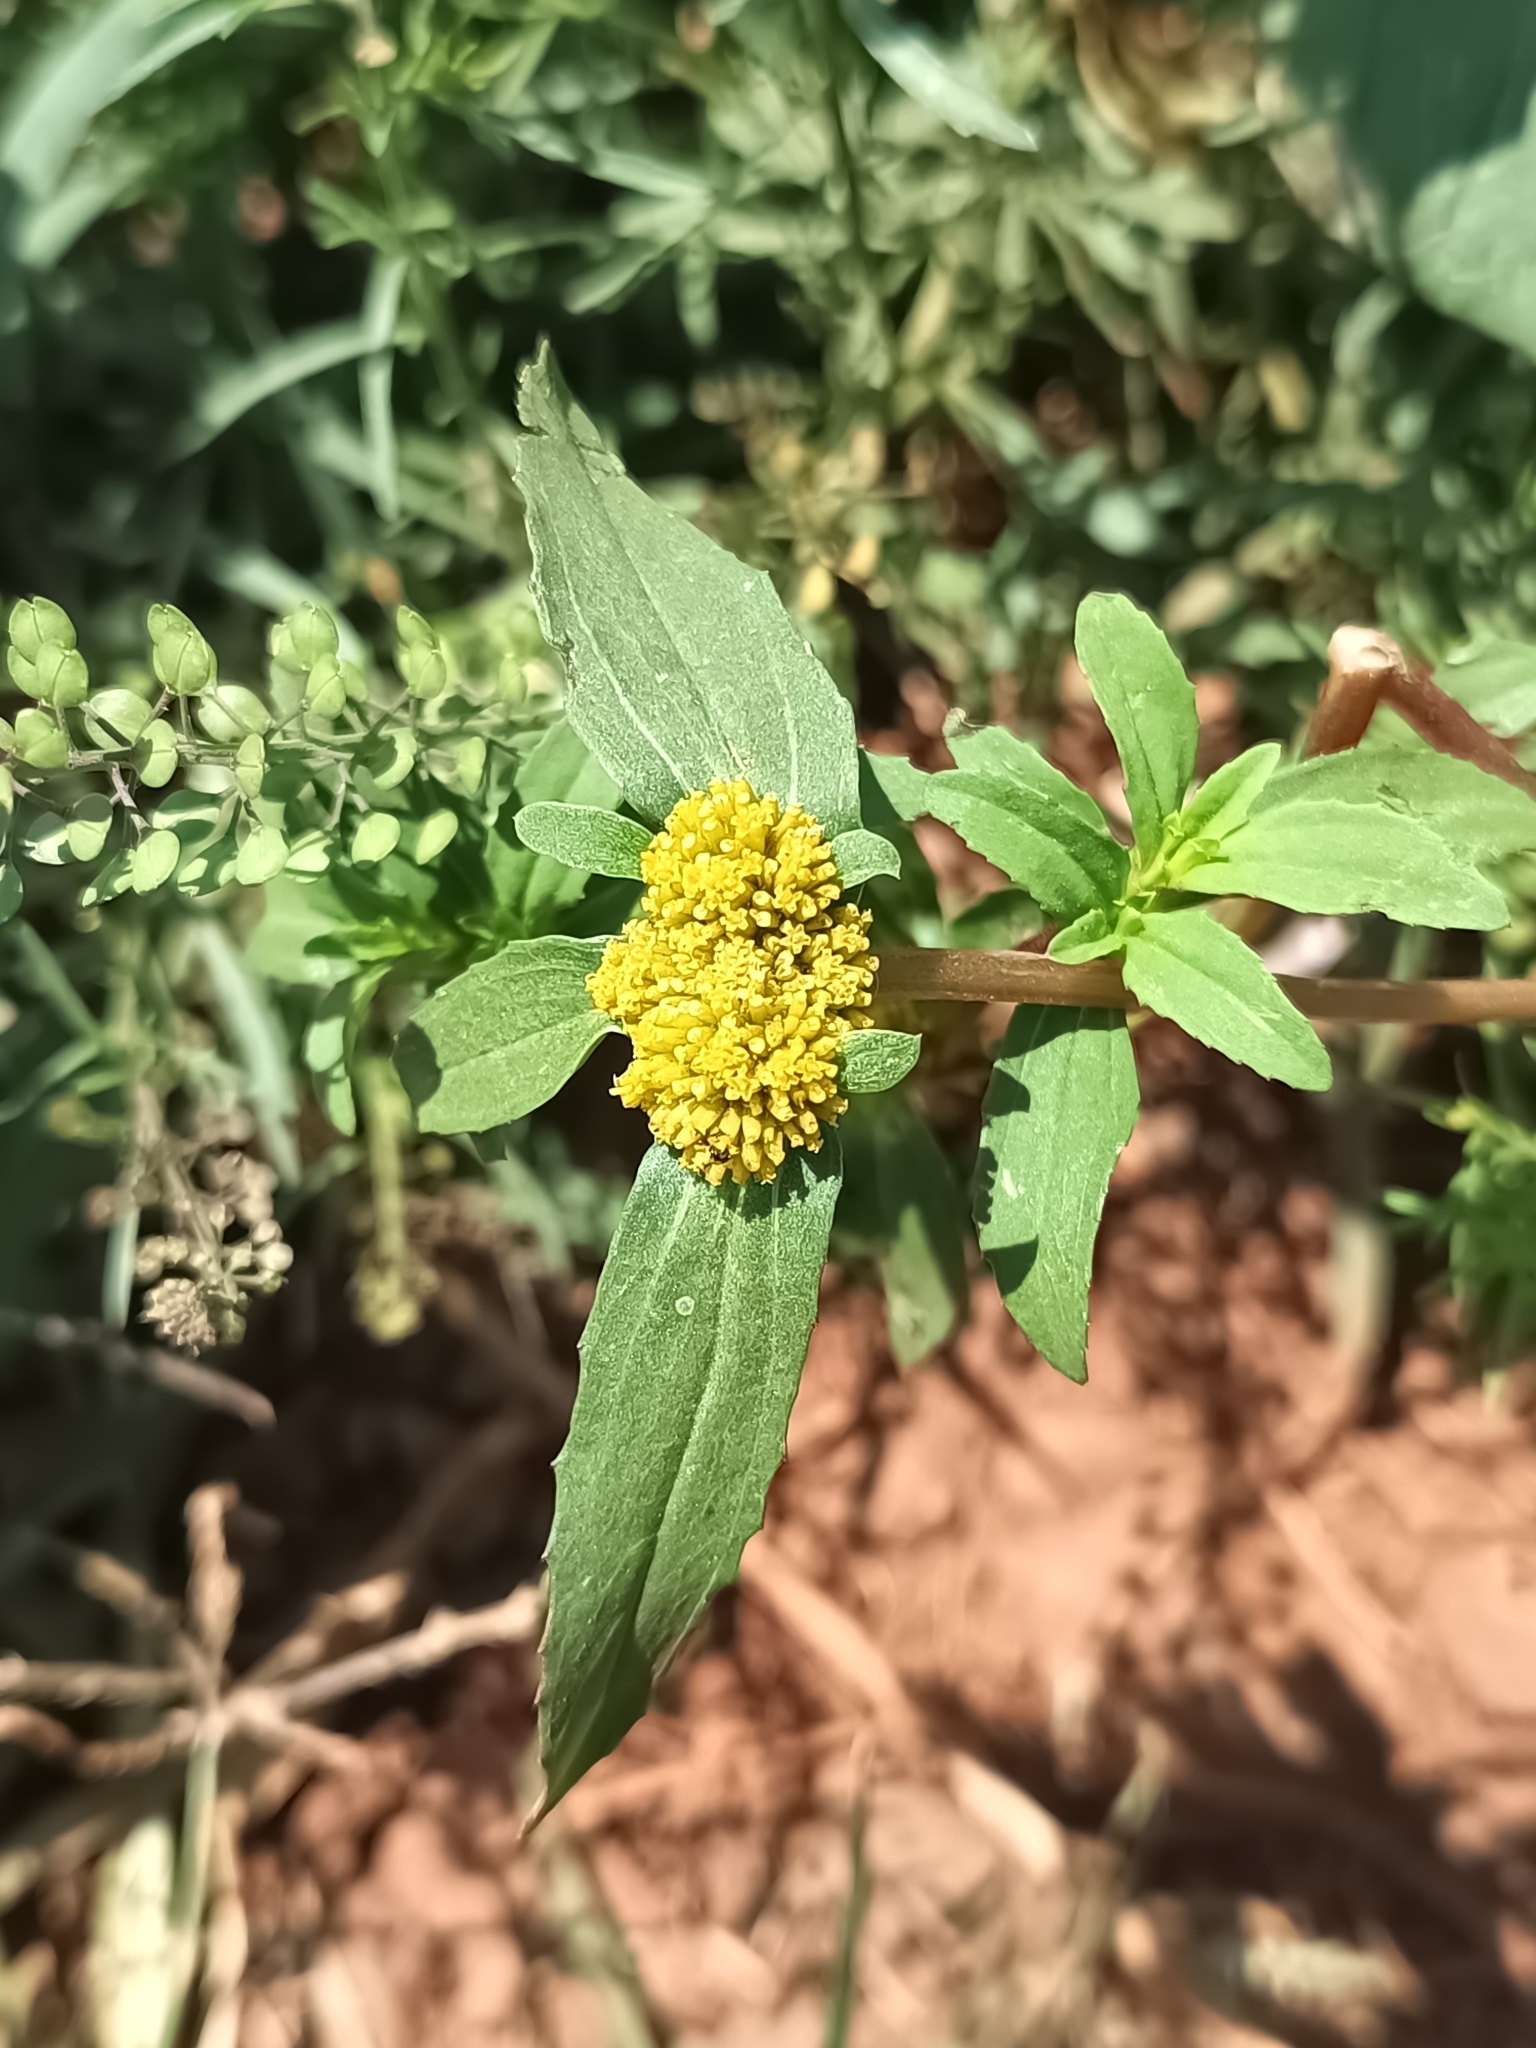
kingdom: Plantae
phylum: Tracheophyta
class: Magnoliopsida
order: Asterales
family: Asteraceae
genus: Flaveria
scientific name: Flaveria trinervia
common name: Clustered yellowtops
